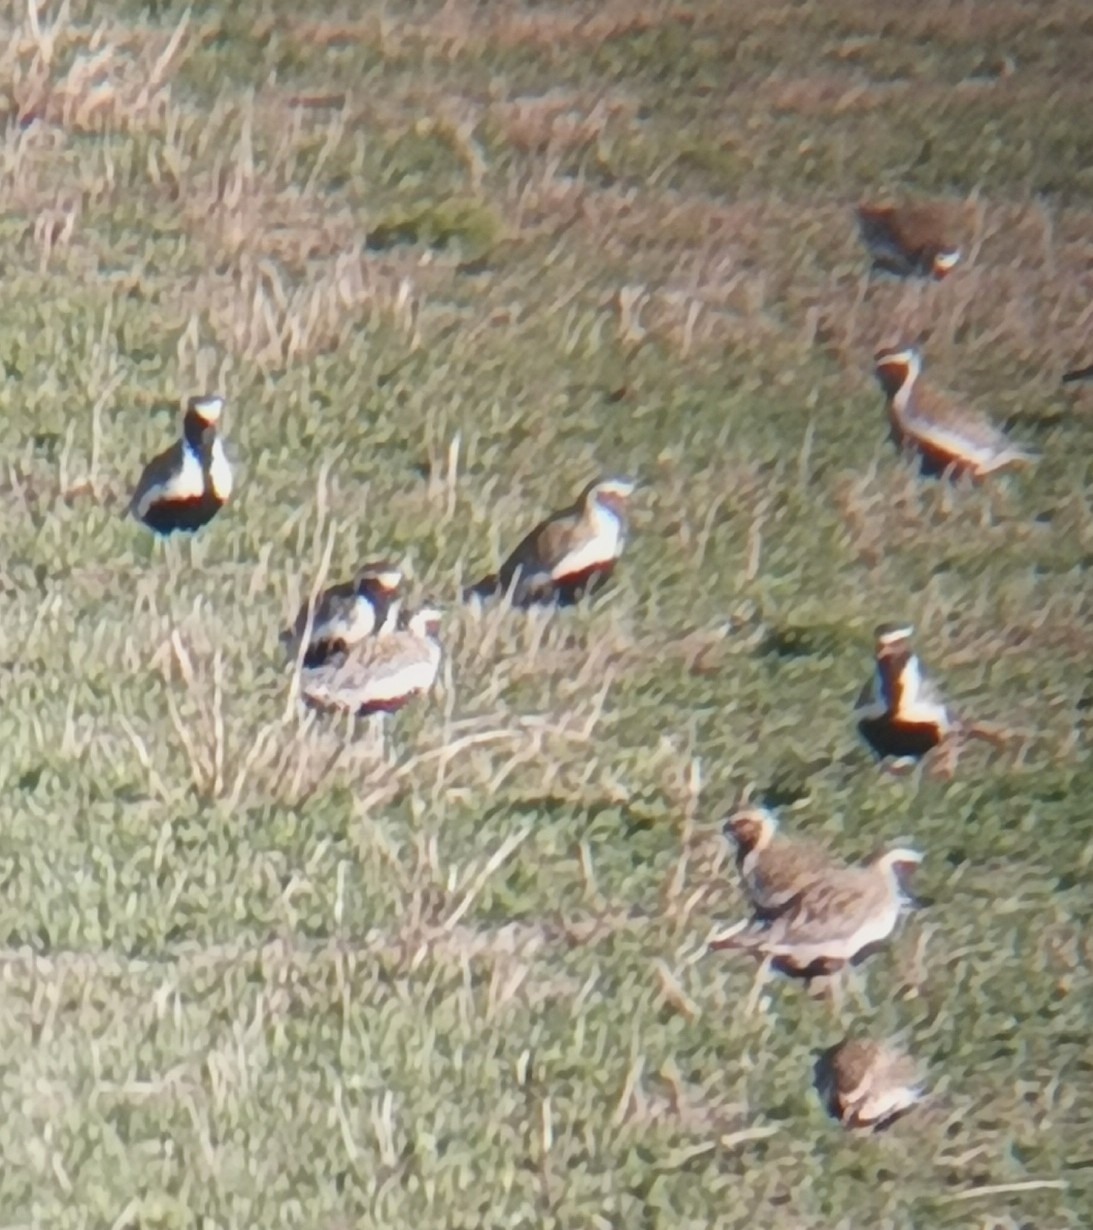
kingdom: Animalia
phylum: Chordata
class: Aves
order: Charadriiformes
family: Charadriidae
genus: Pluvialis
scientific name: Pluvialis apricaria
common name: European golden plover
